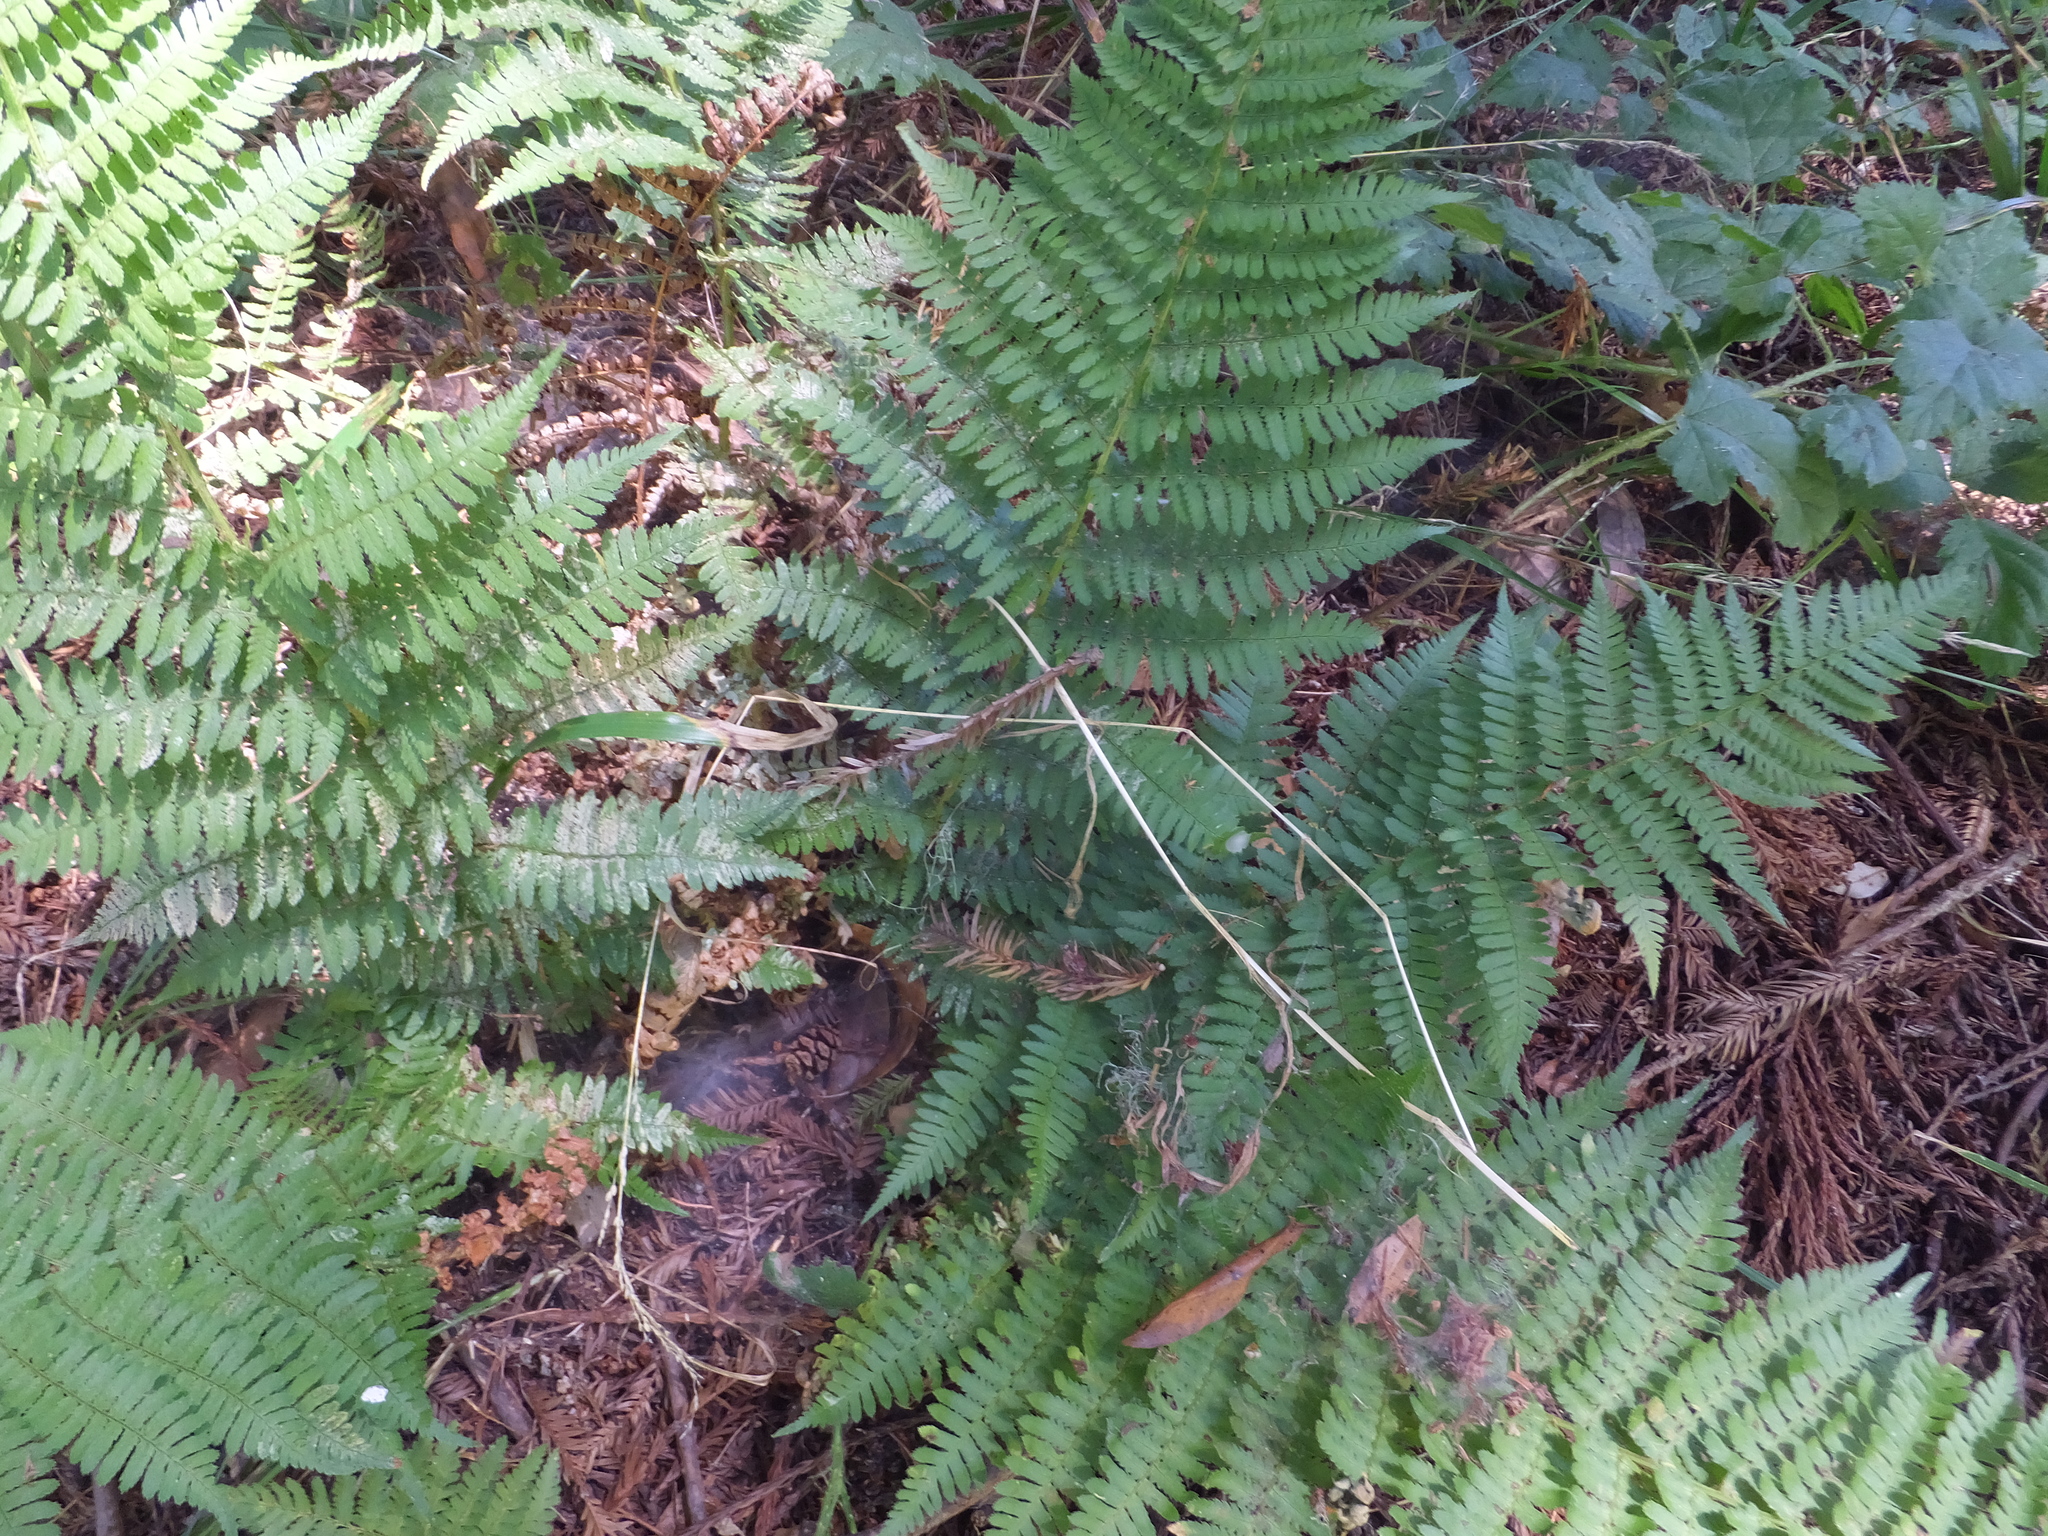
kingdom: Plantae
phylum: Tracheophyta
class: Polypodiopsida
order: Polypodiales
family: Dryopteridaceae
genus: Dryopteris
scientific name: Dryopteris arguta
